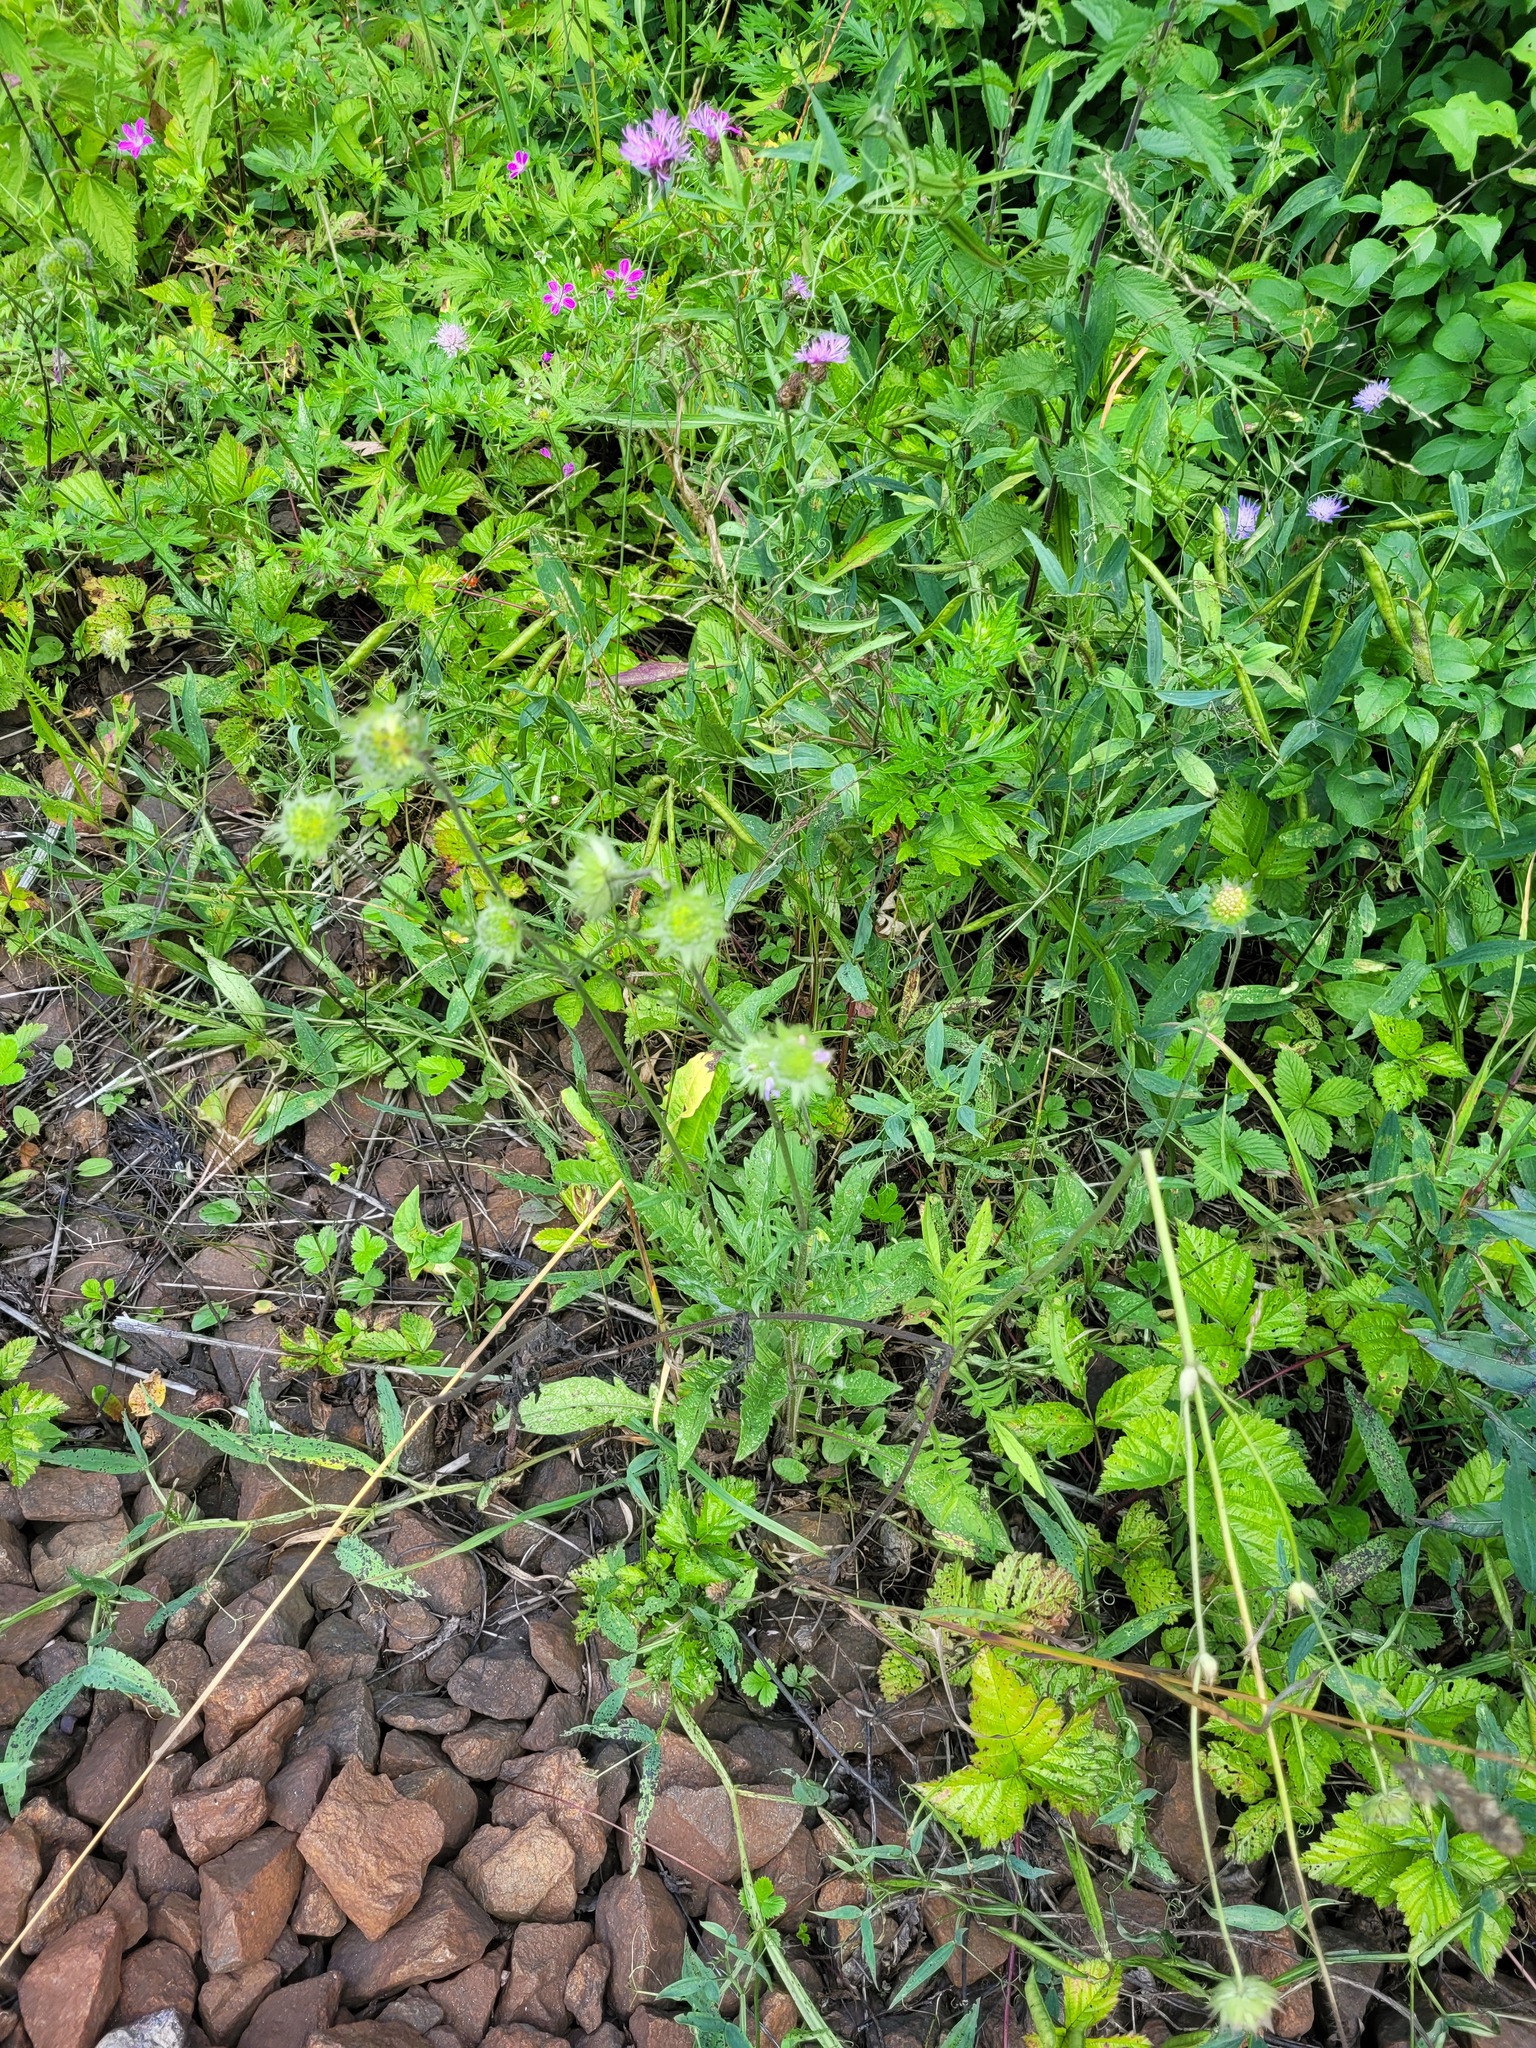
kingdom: Plantae
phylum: Tracheophyta
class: Magnoliopsida
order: Dipsacales
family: Caprifoliaceae
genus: Knautia
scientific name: Knautia arvensis
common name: Field scabiosa
